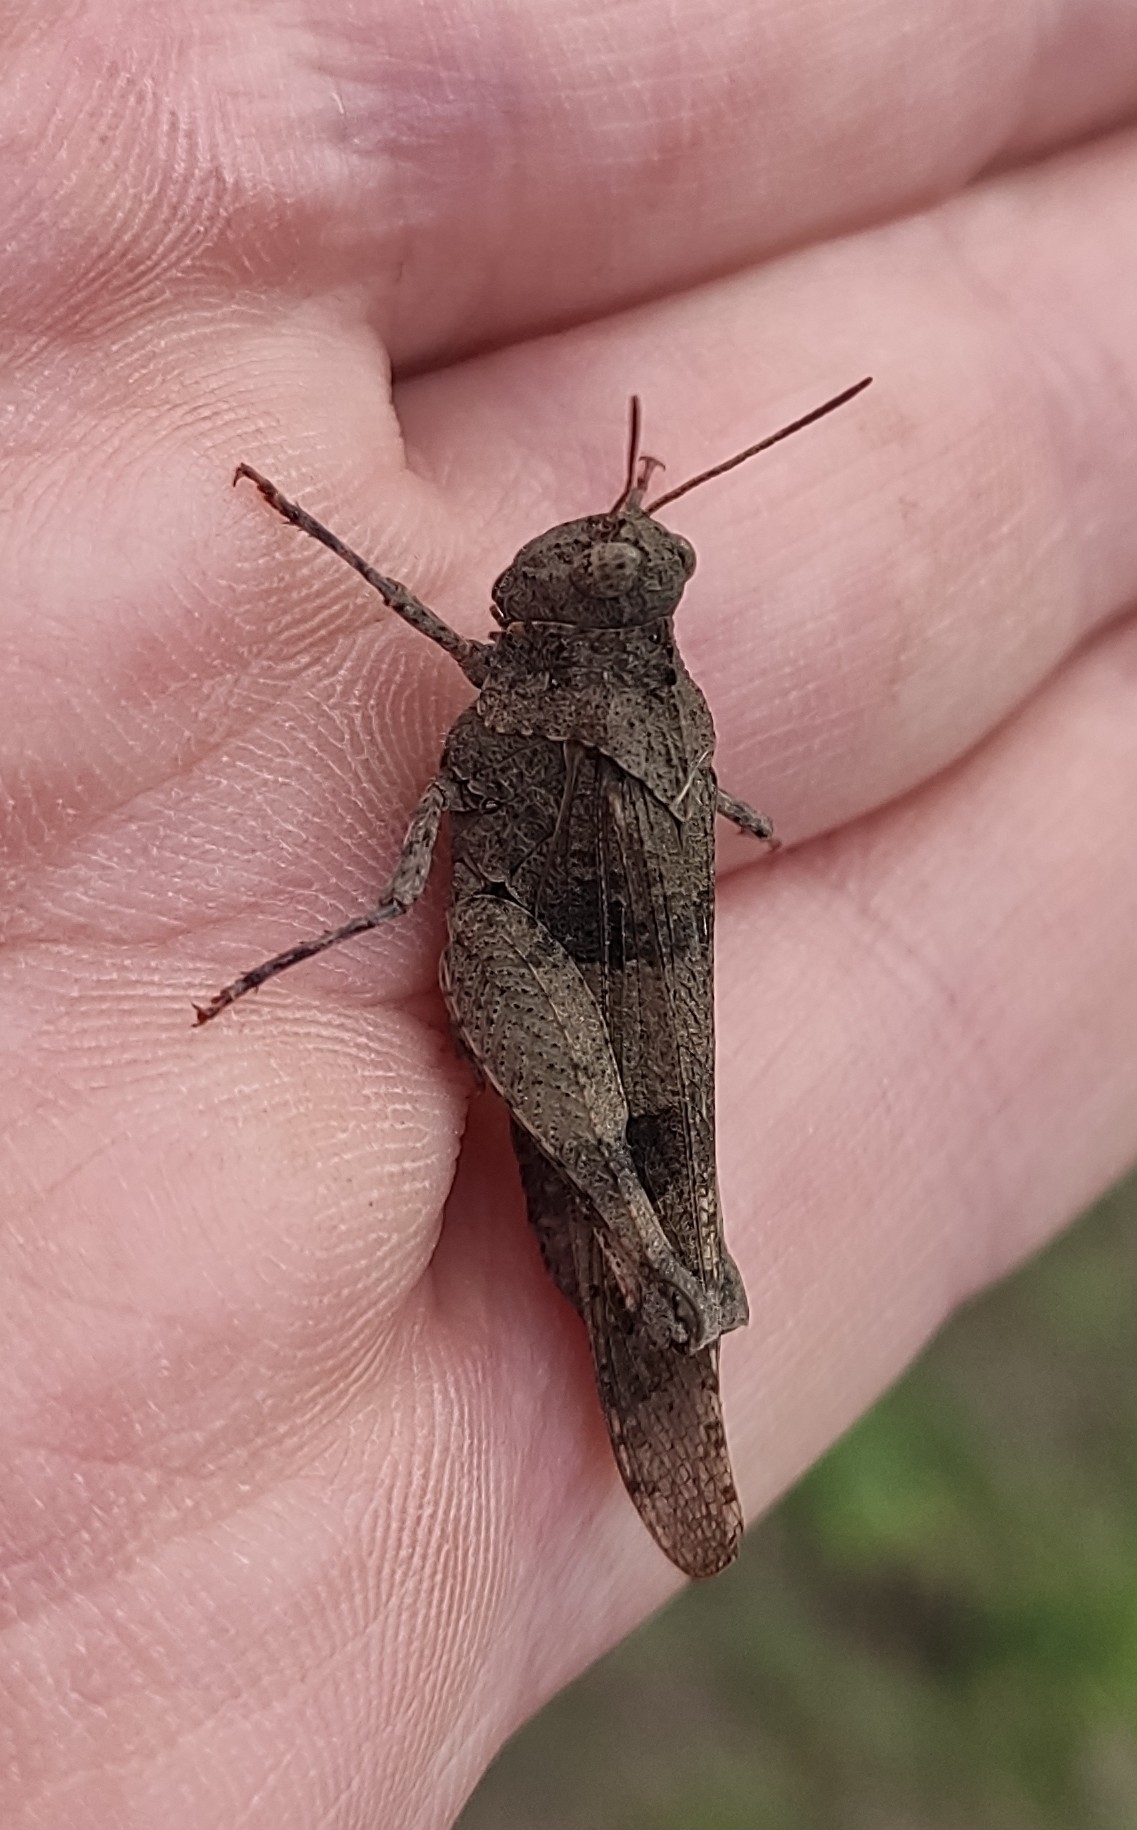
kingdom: Animalia
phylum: Arthropoda
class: Insecta
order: Orthoptera
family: Acrididae
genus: Oedipoda
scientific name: Oedipoda caerulescens
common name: Blue-winged grasshopper
